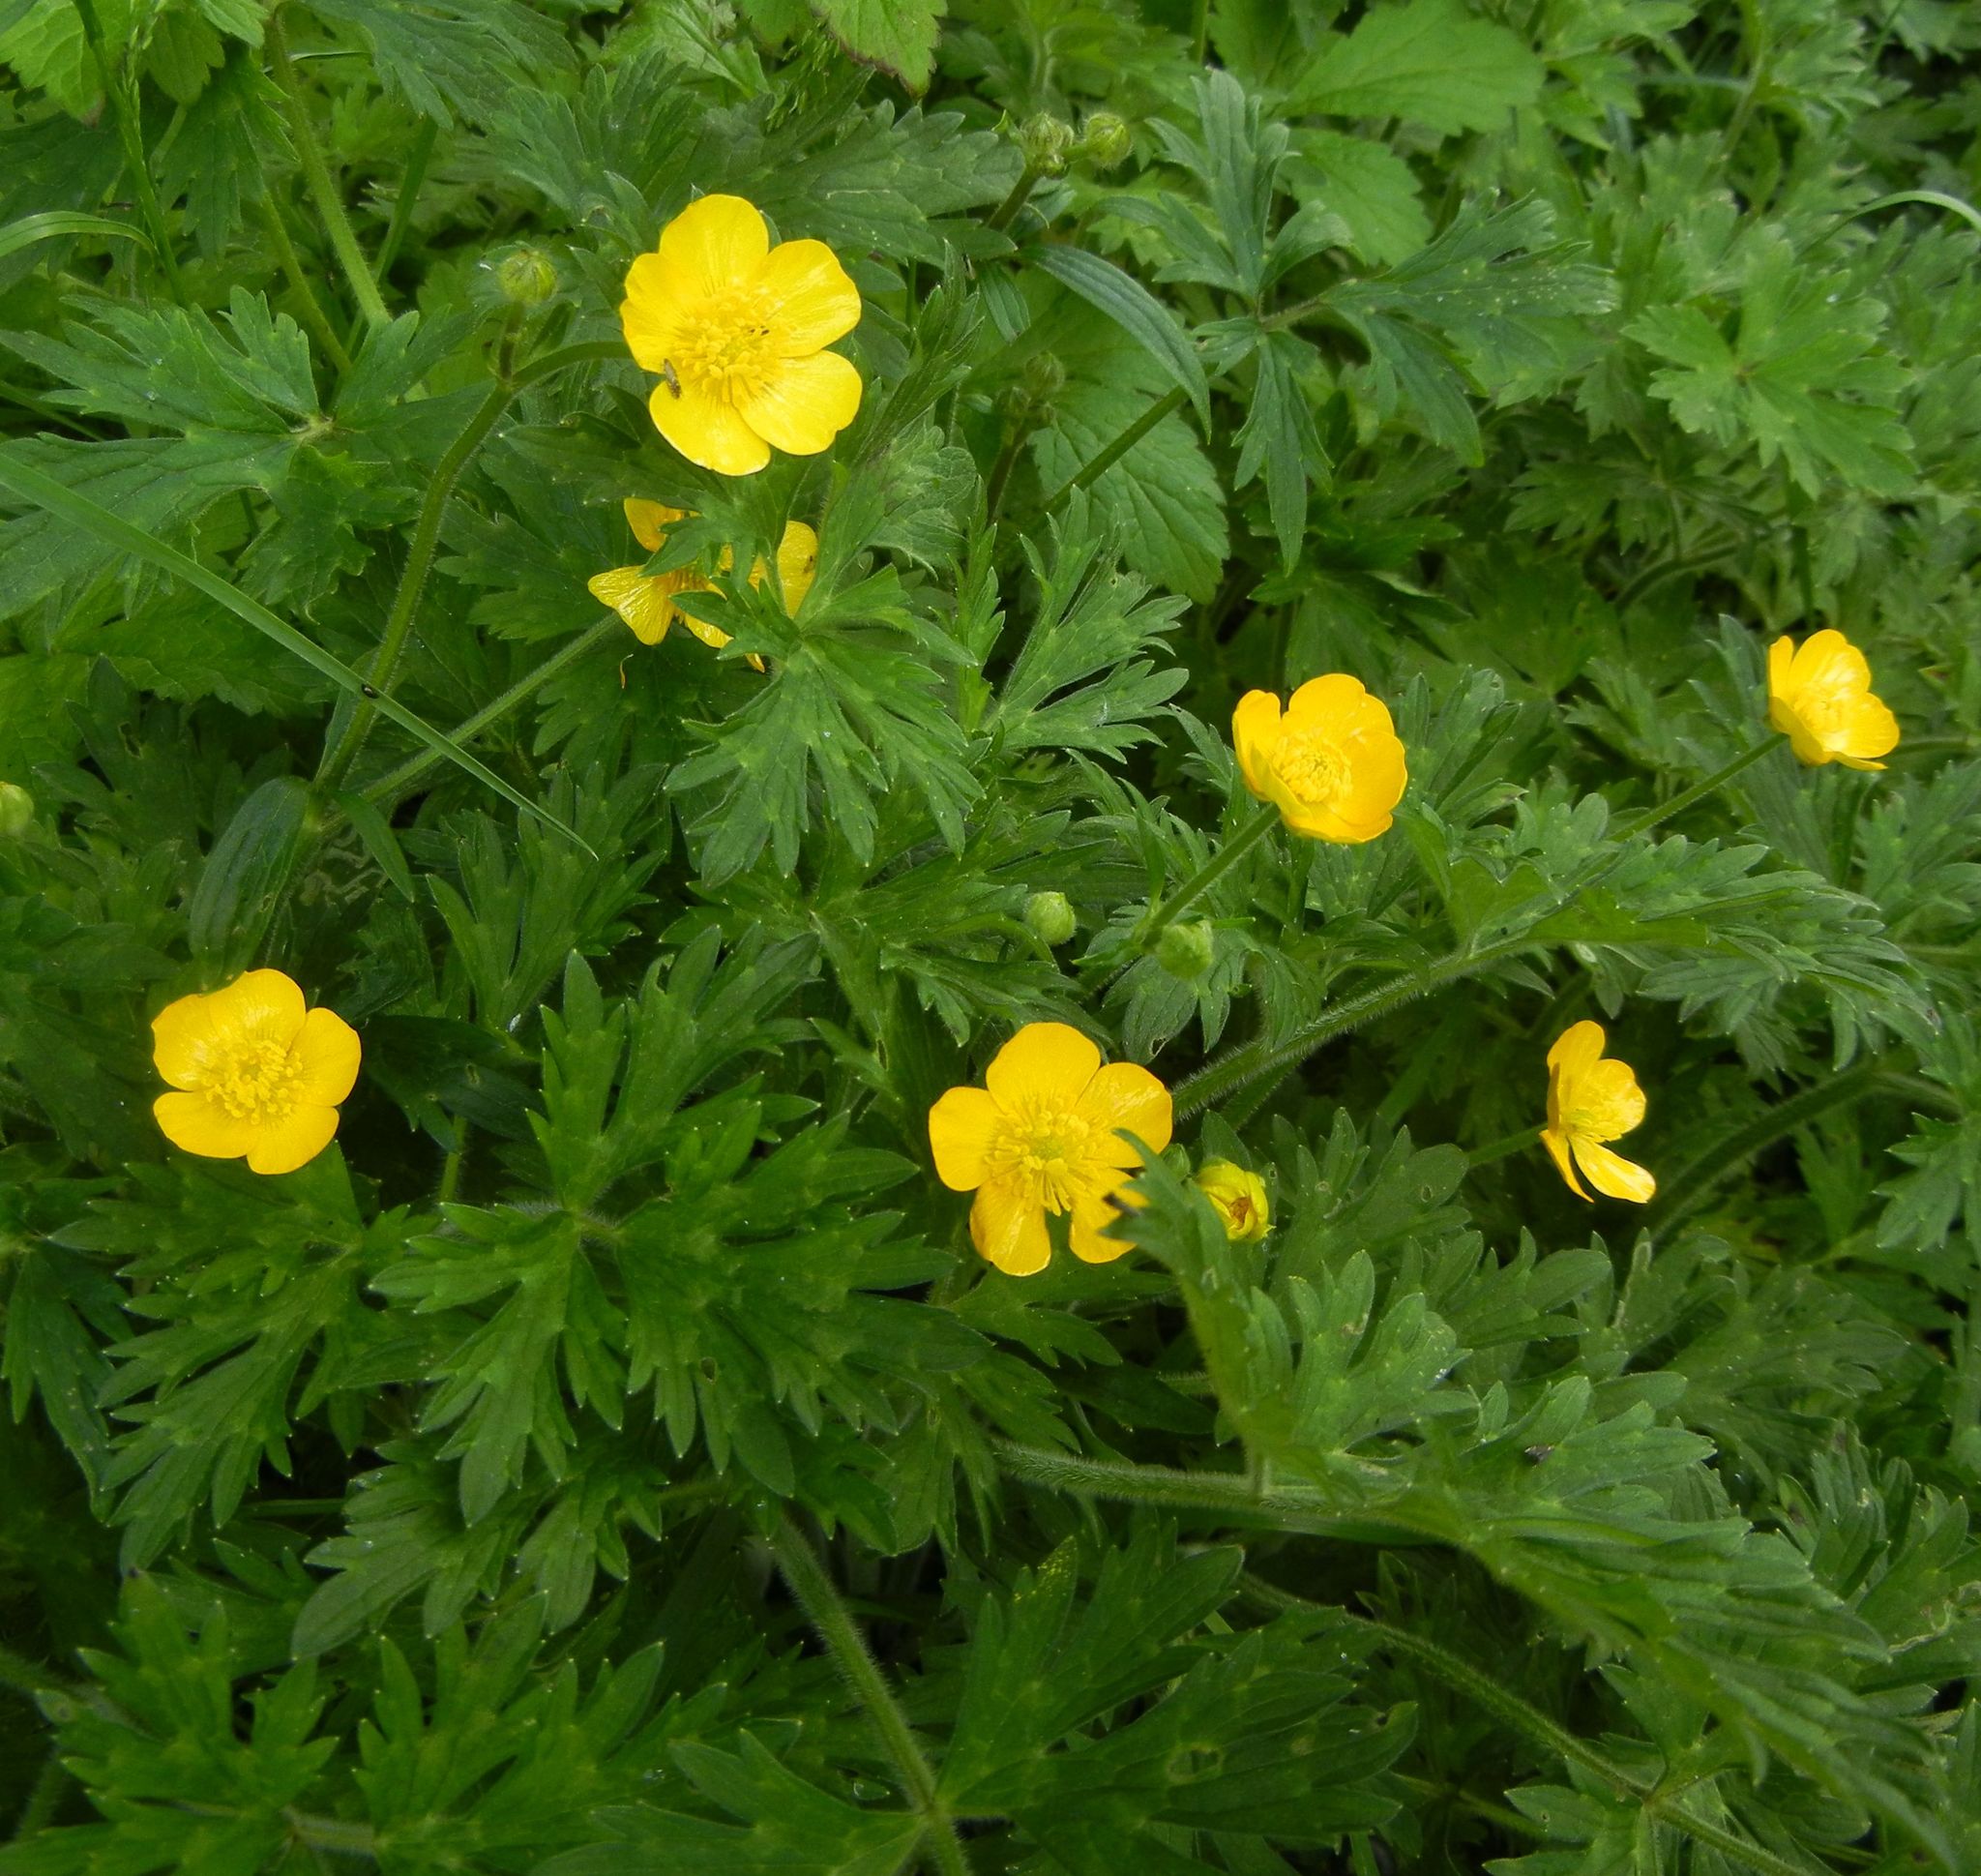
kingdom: Plantae
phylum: Tracheophyta
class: Magnoliopsida
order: Ranunculales
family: Ranunculaceae
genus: Ranunculus
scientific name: Ranunculus repens
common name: Creeping buttercup
